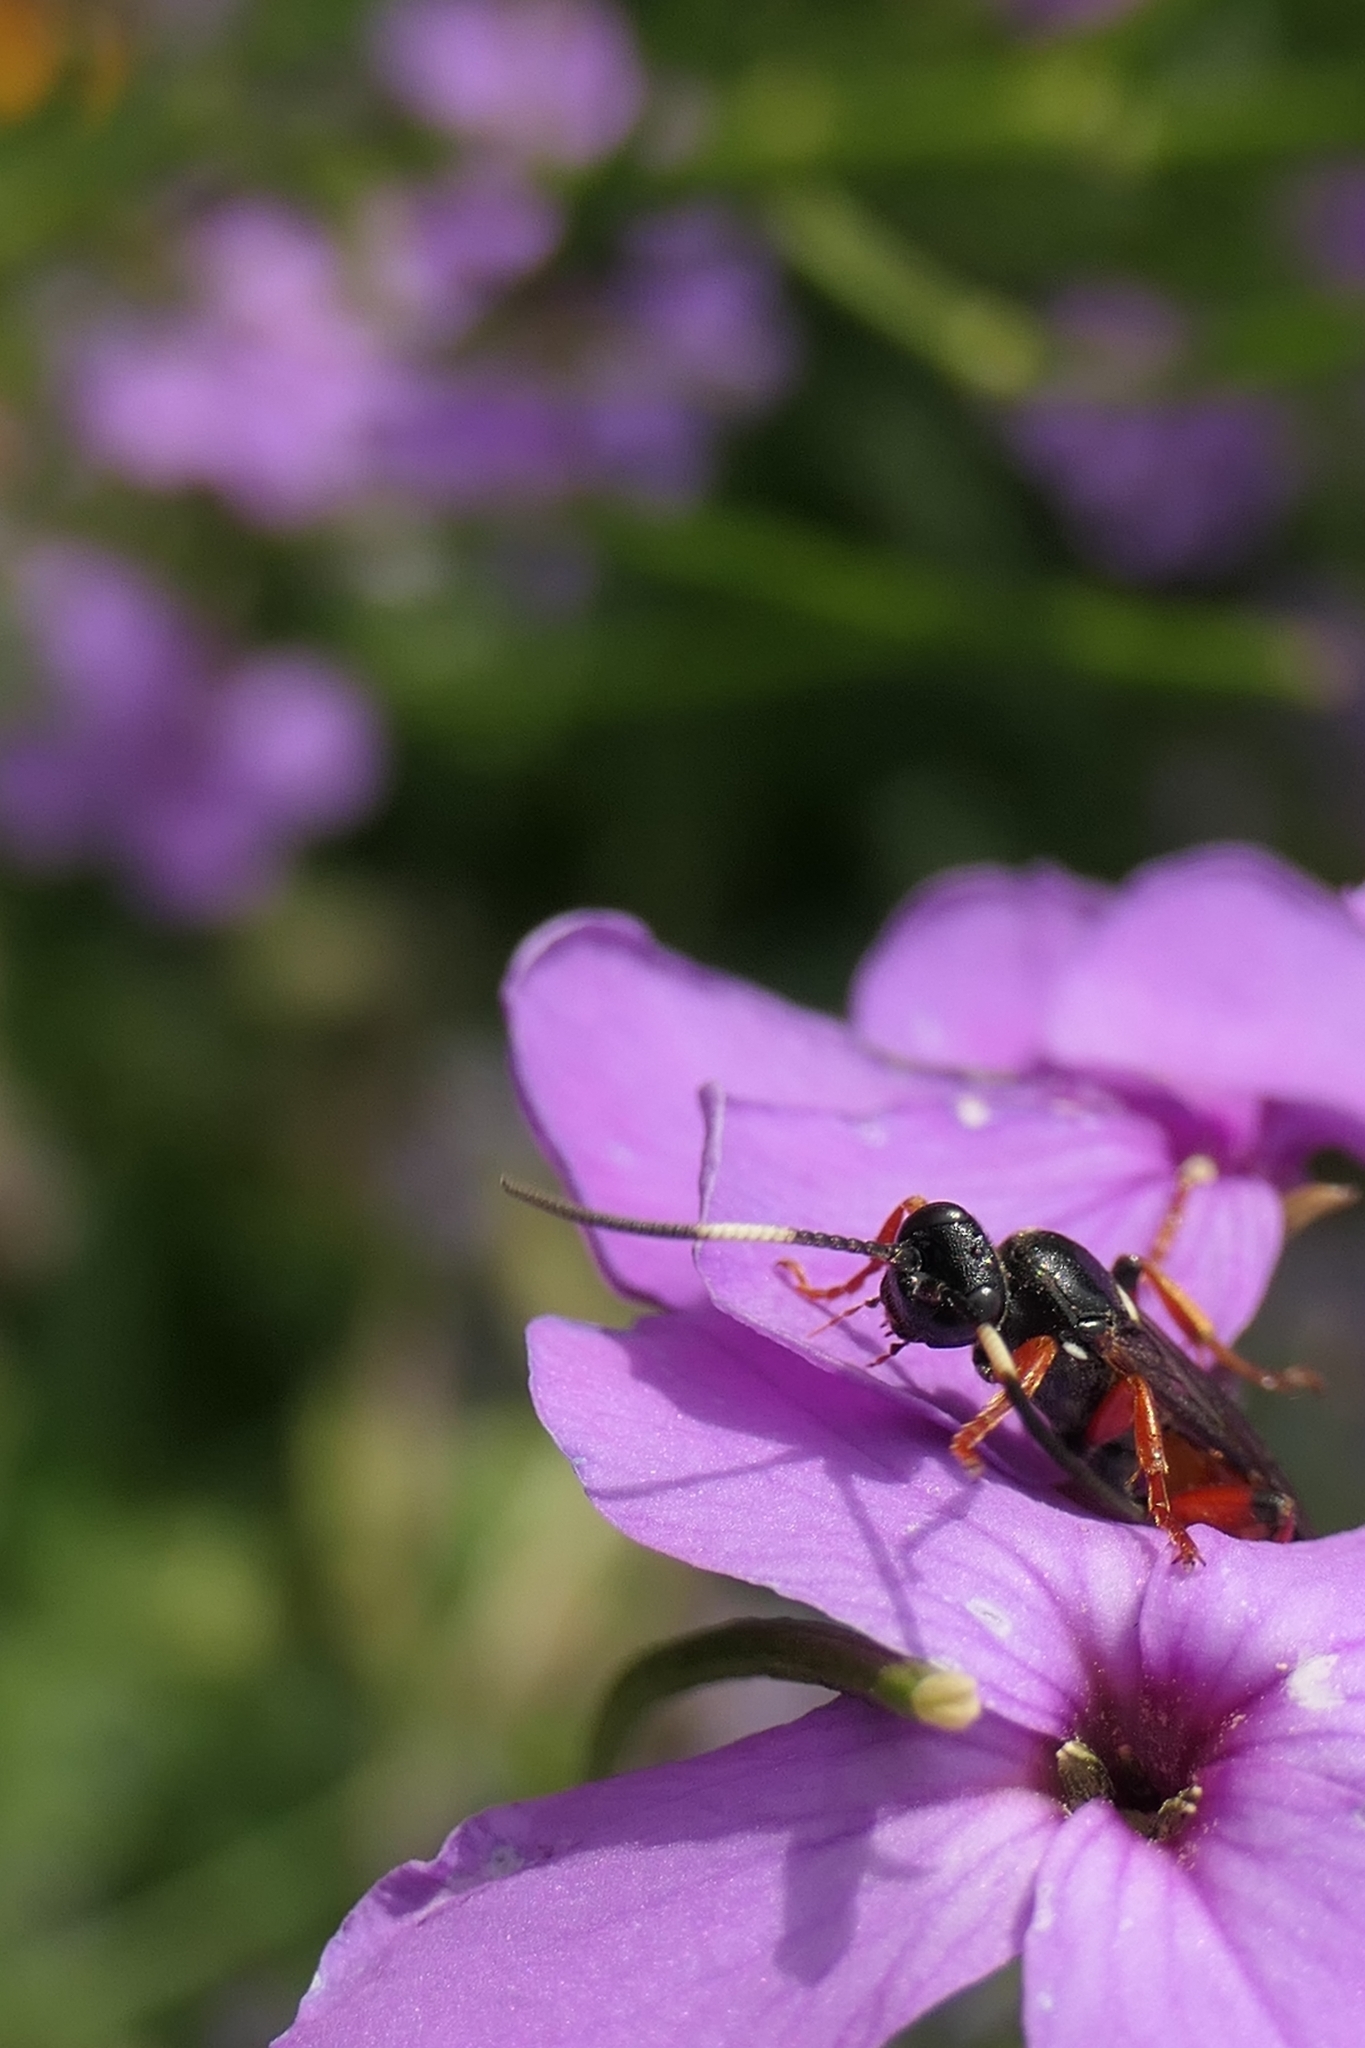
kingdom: Animalia
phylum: Arthropoda
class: Insecta
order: Hymenoptera
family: Ichneumonidae
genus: Ichneumon
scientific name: Ichneumon promissorius
